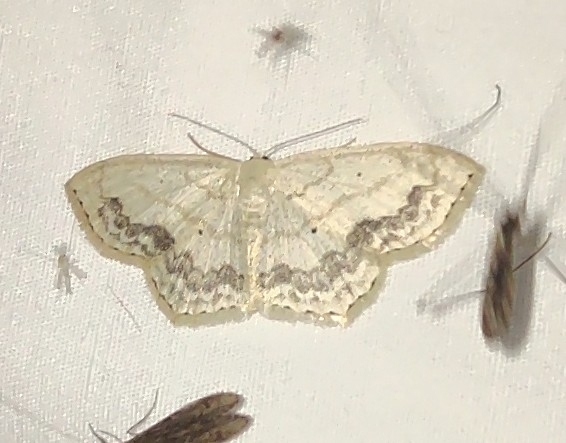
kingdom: Animalia
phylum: Arthropoda
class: Insecta
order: Lepidoptera
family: Geometridae
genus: Scopula
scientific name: Scopula limboundata
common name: Large lace border
